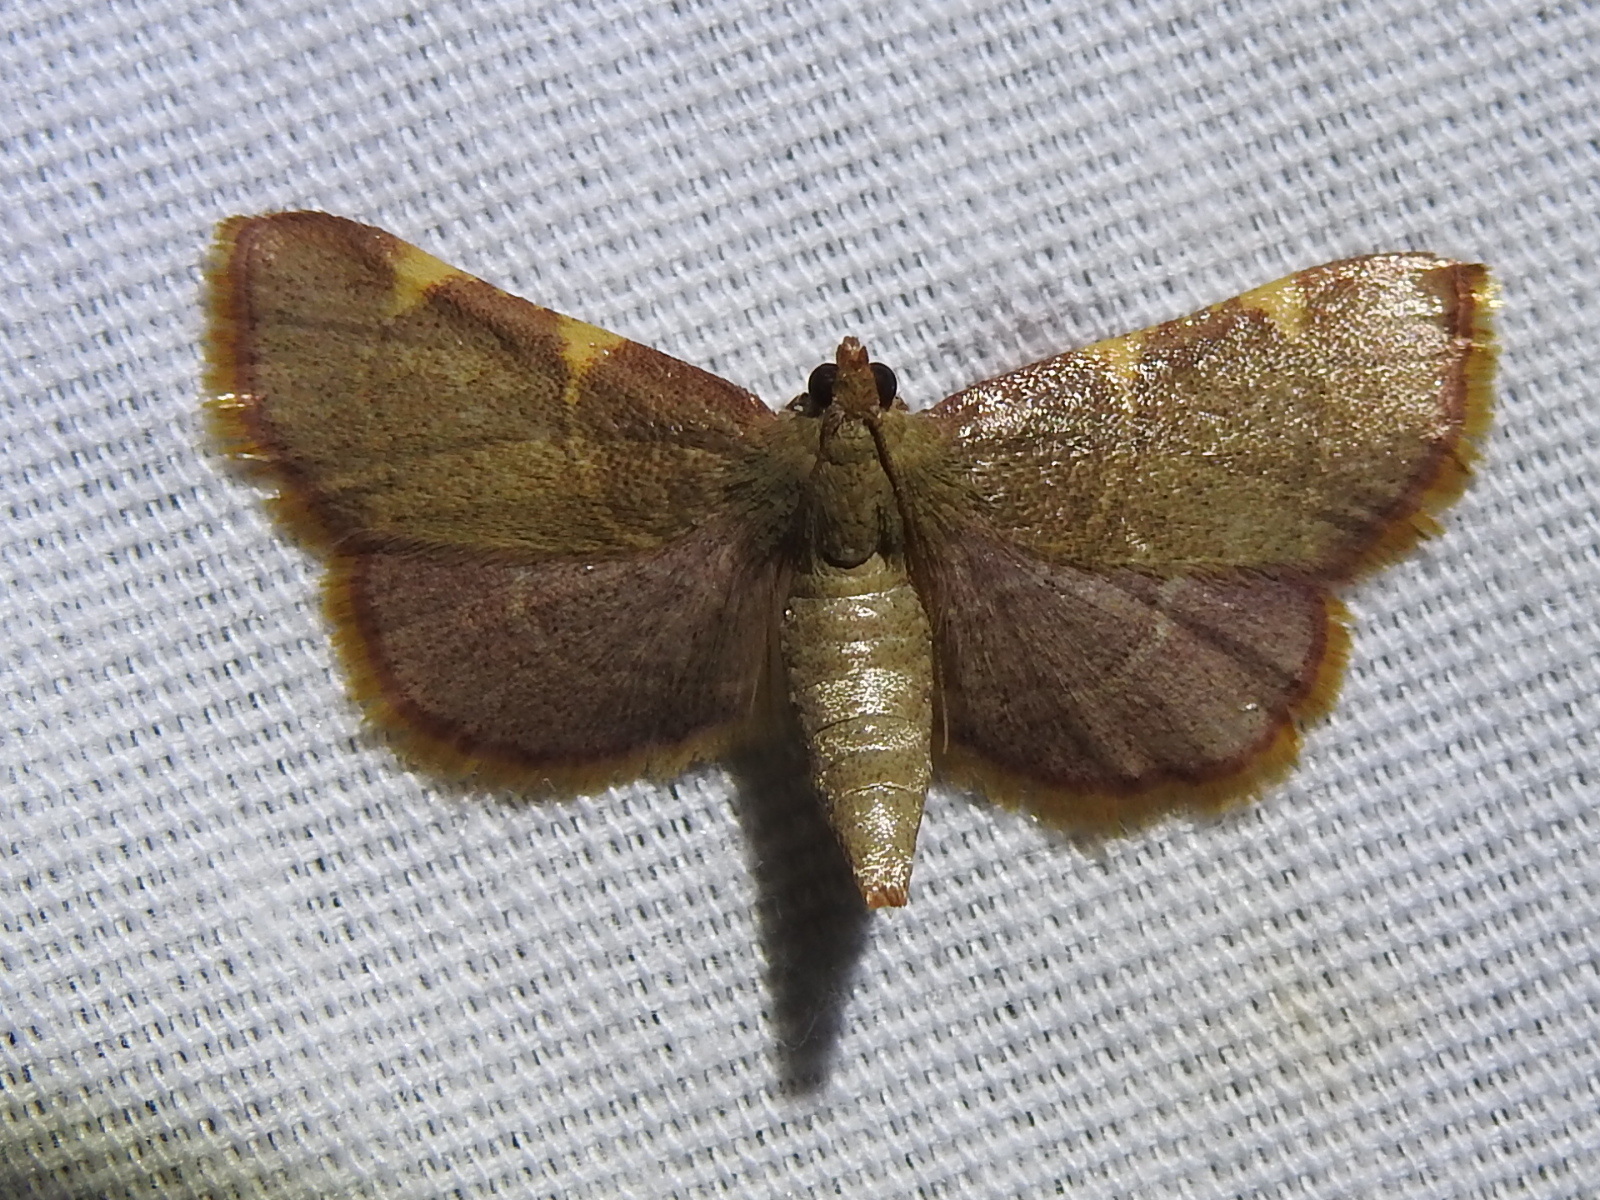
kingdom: Animalia
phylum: Arthropoda
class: Insecta
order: Lepidoptera
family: Pyralidae
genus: Hypsopygia
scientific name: Hypsopygia olinalis
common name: Yellow-fringed dolichomia moth
